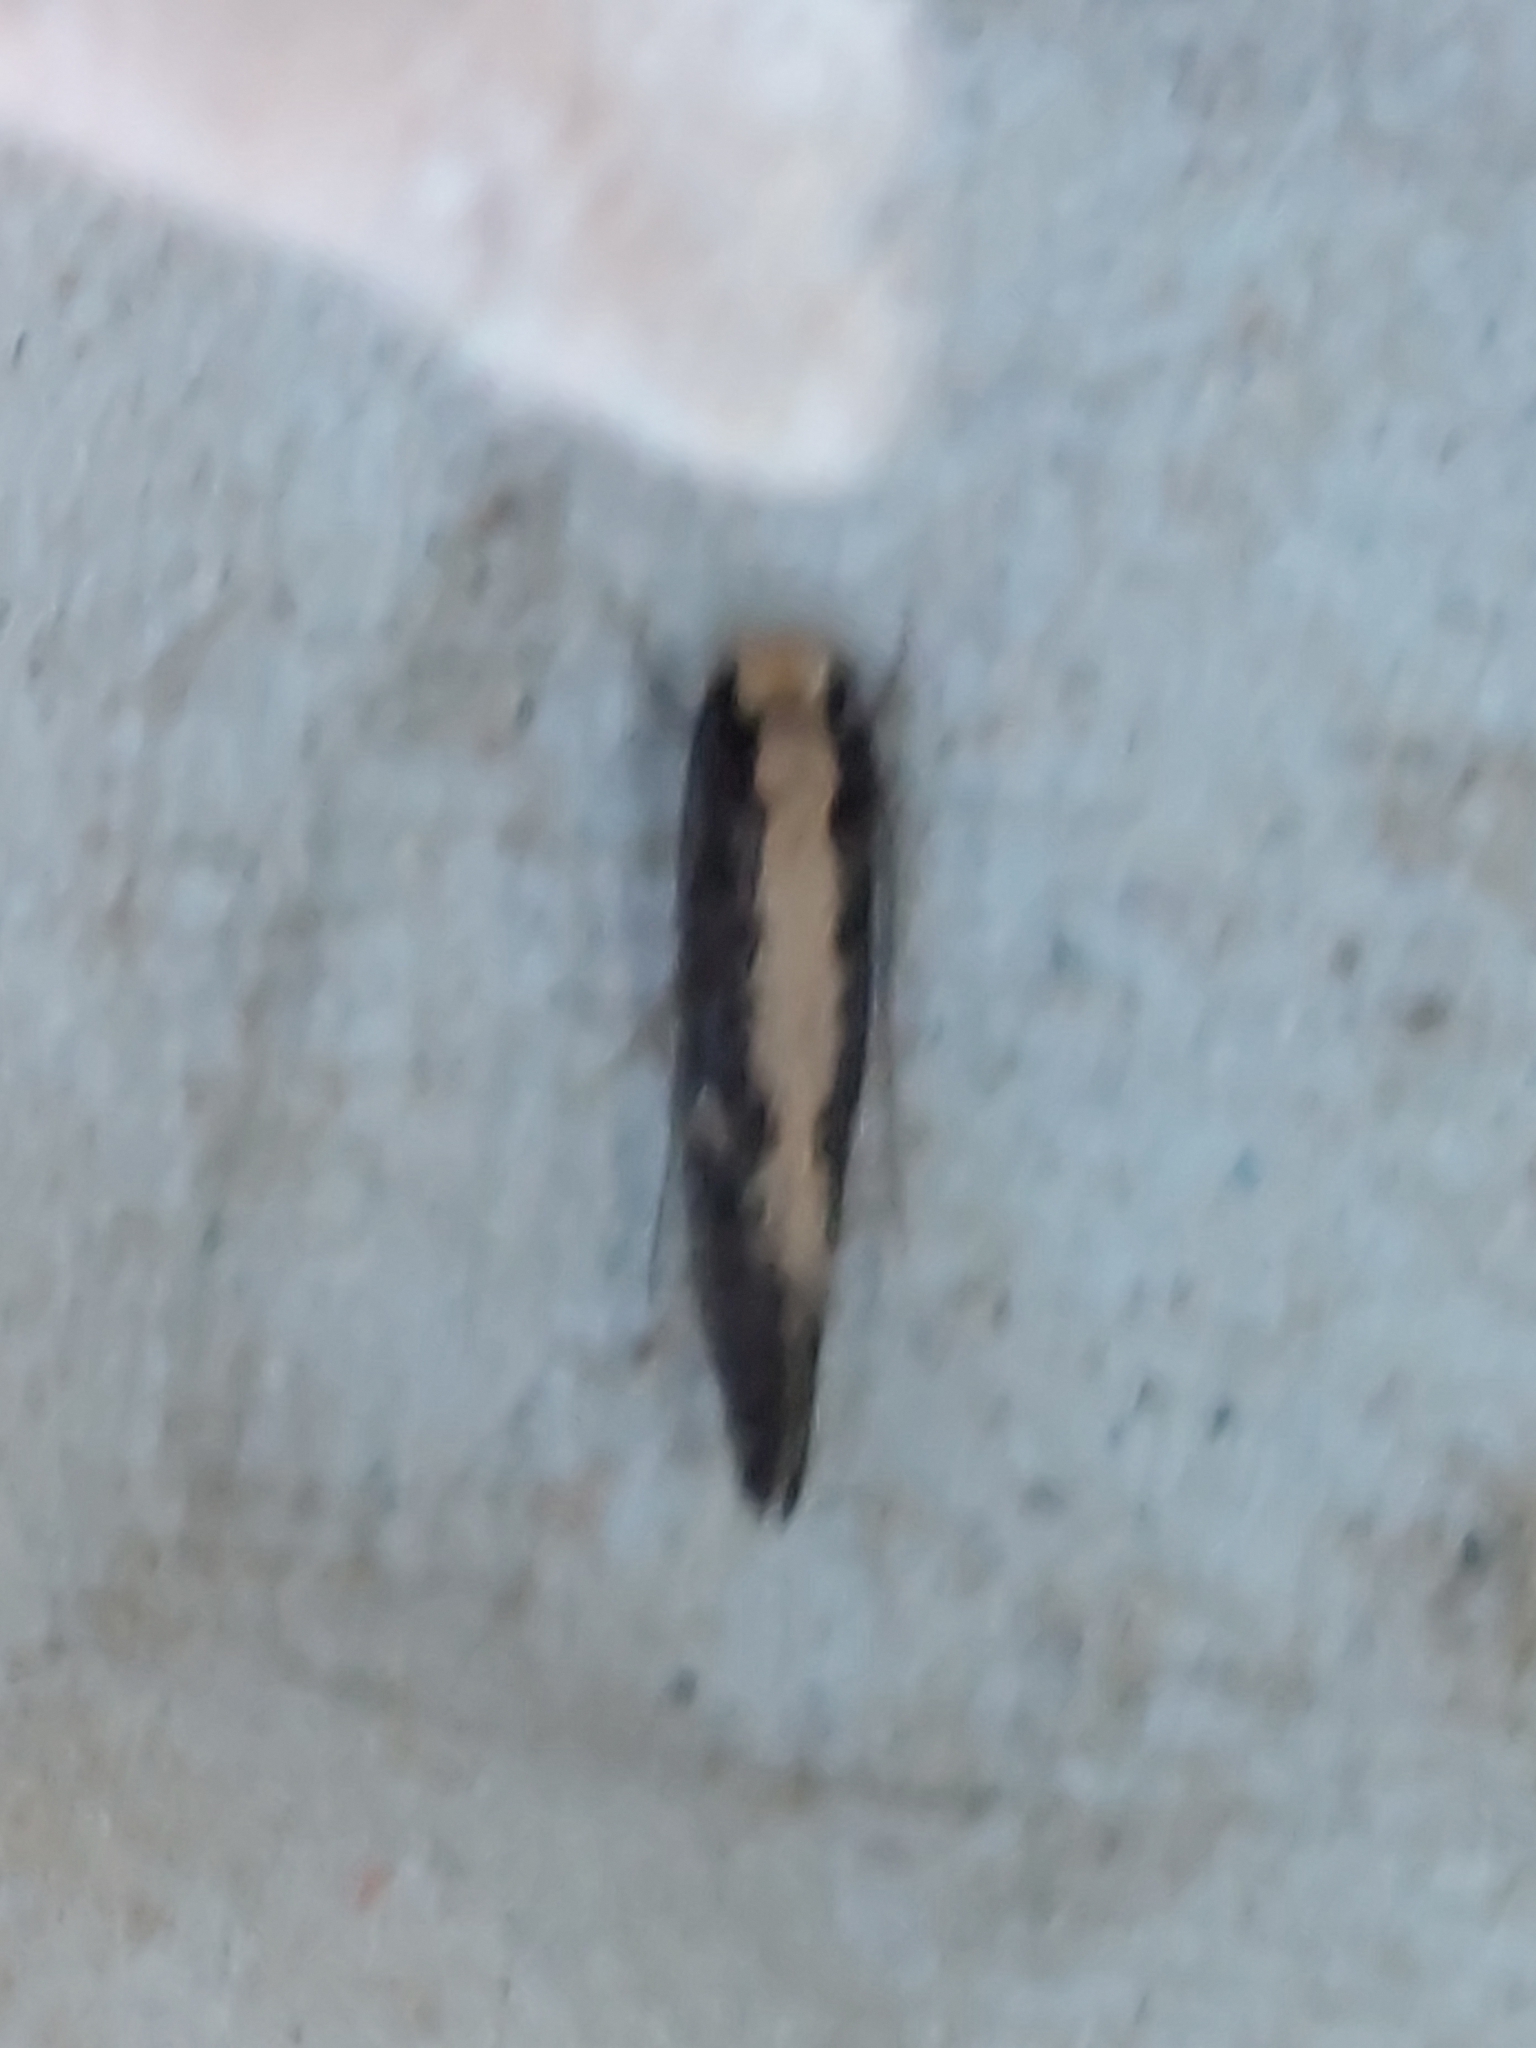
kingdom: Animalia
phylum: Arthropoda
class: Insecta
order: Lepidoptera
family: Tineidae
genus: Monopis
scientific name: Monopis crocicapitella
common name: Moth
